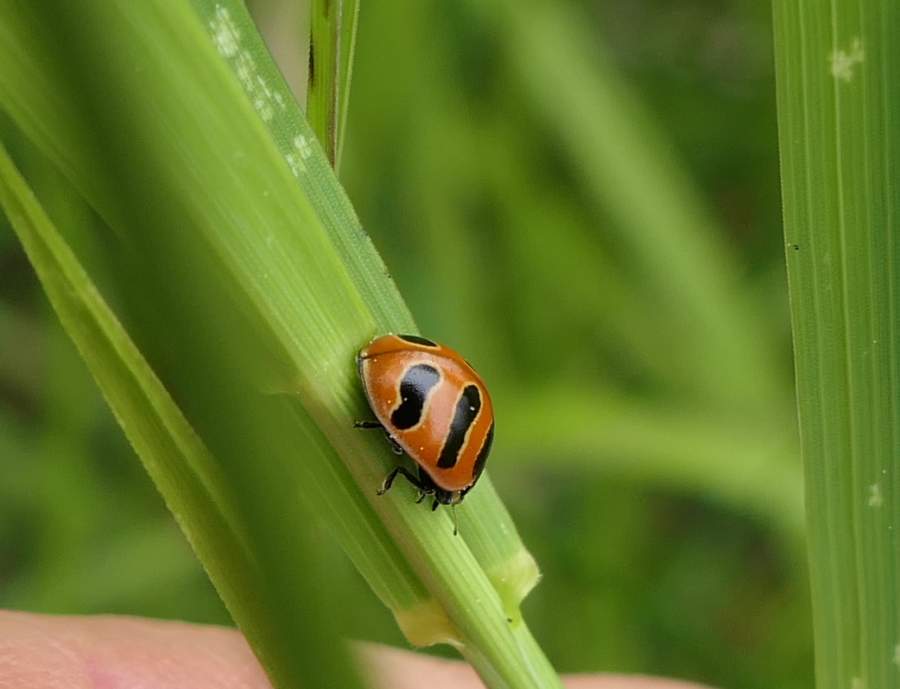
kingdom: Animalia
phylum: Arthropoda
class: Insecta
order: Coleoptera
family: Coccinellidae
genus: Coccinella
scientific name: Coccinella trifasciata
